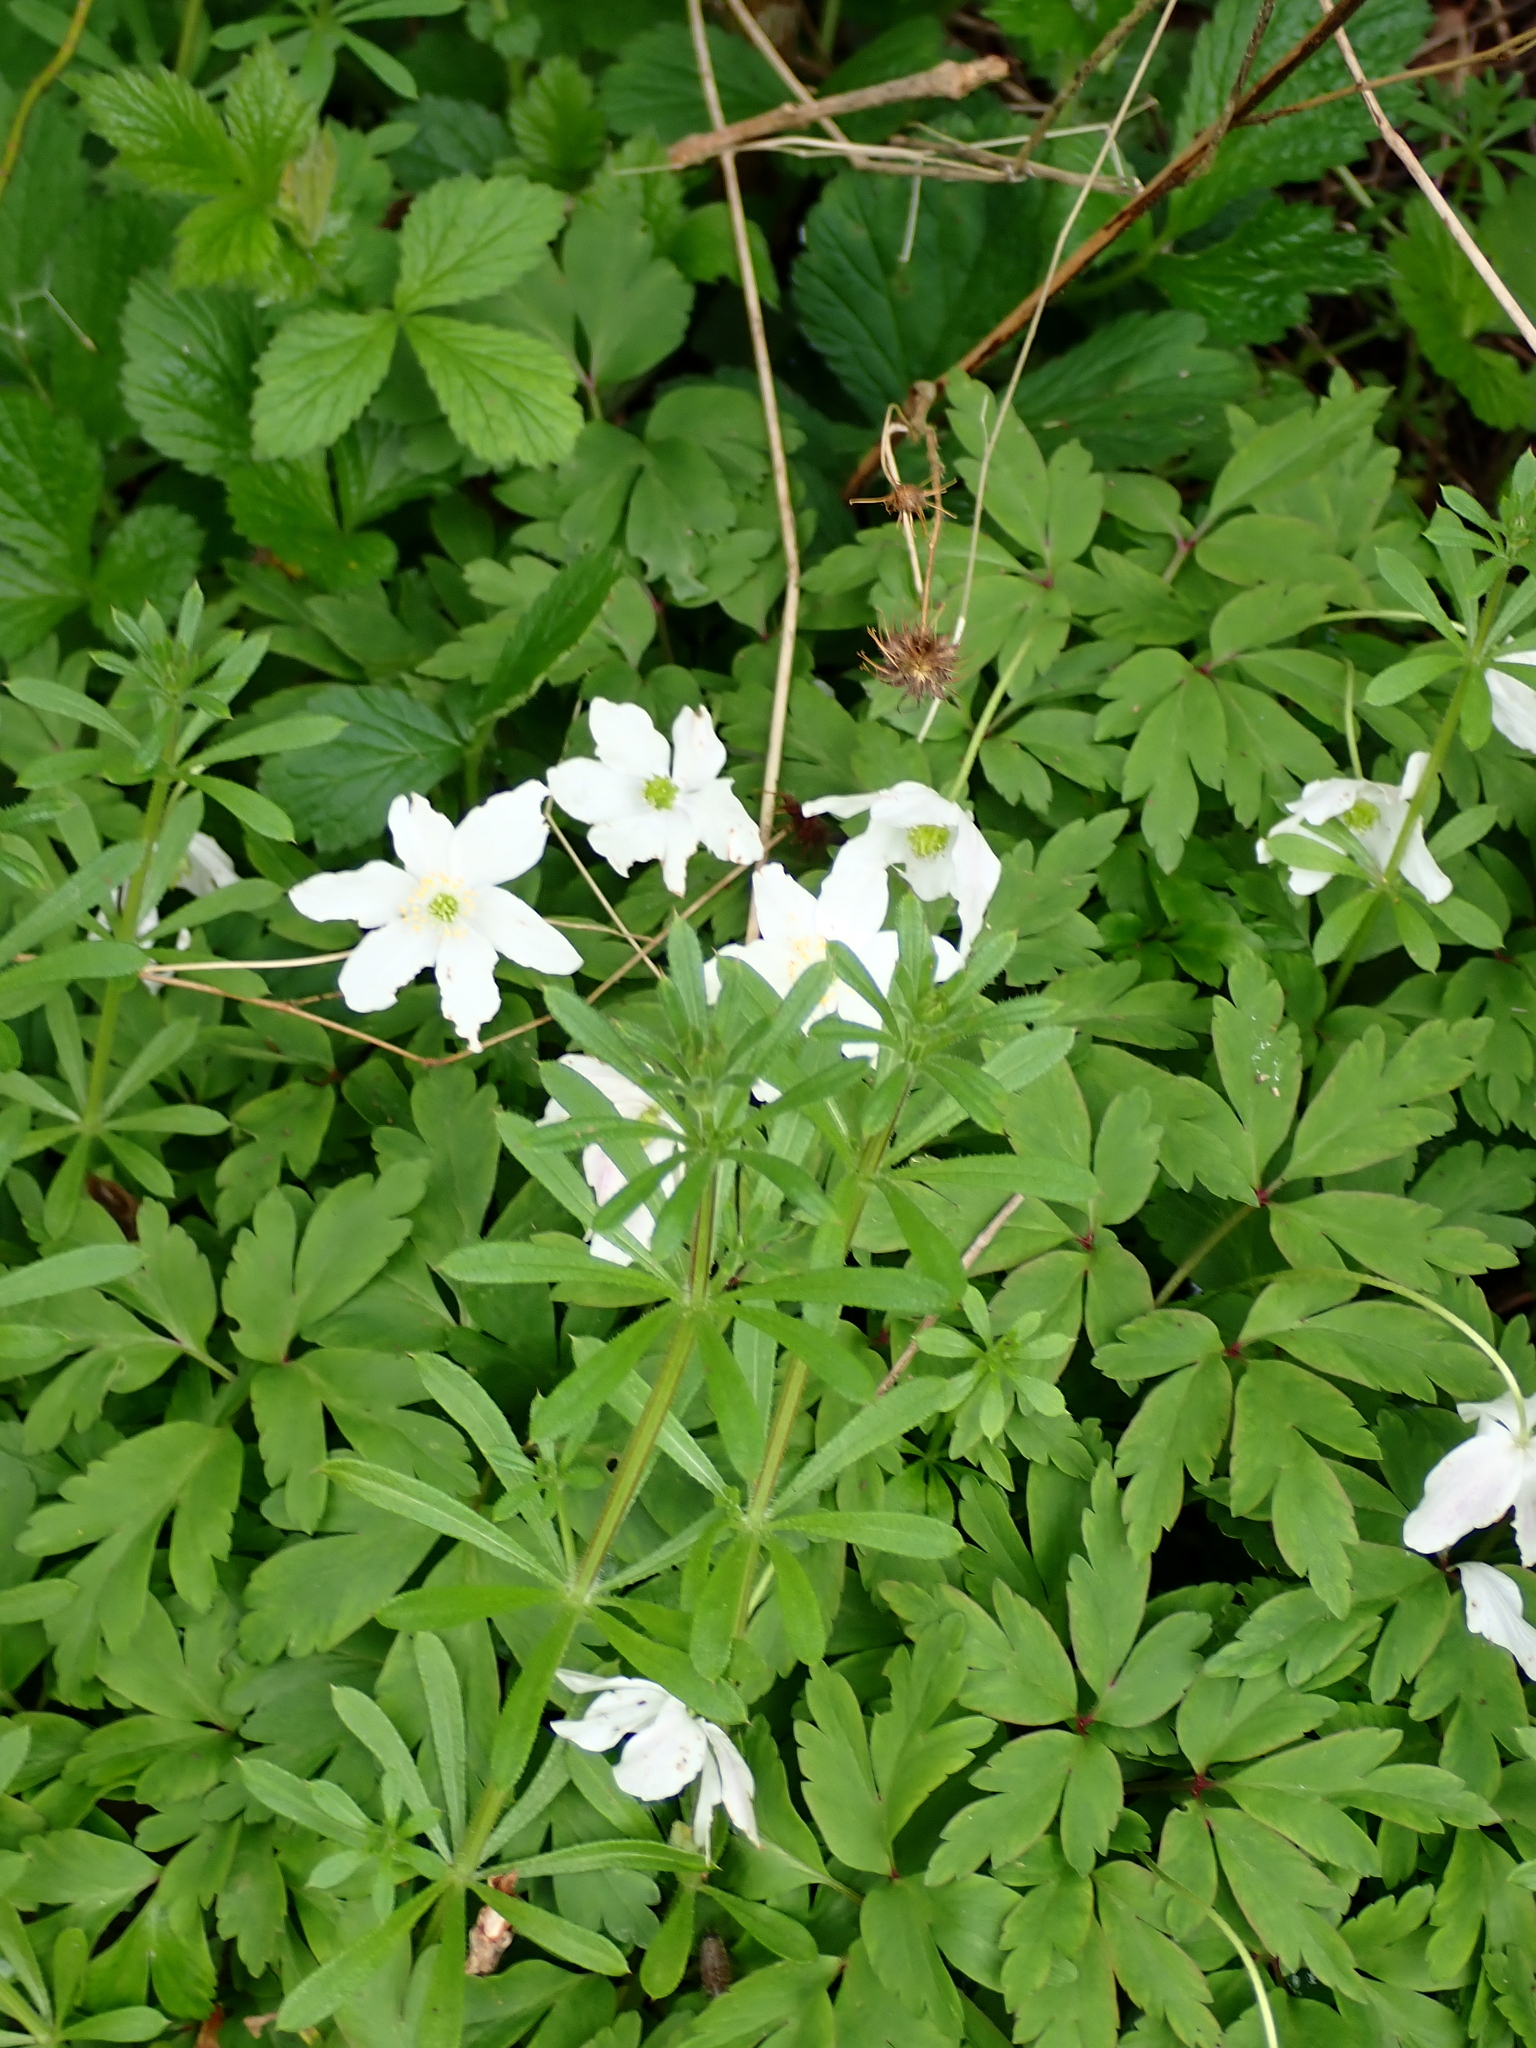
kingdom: Plantae
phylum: Tracheophyta
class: Magnoliopsida
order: Ranunculales
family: Ranunculaceae
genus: Anemone
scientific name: Anemone nemorosa
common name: Wood anemone
